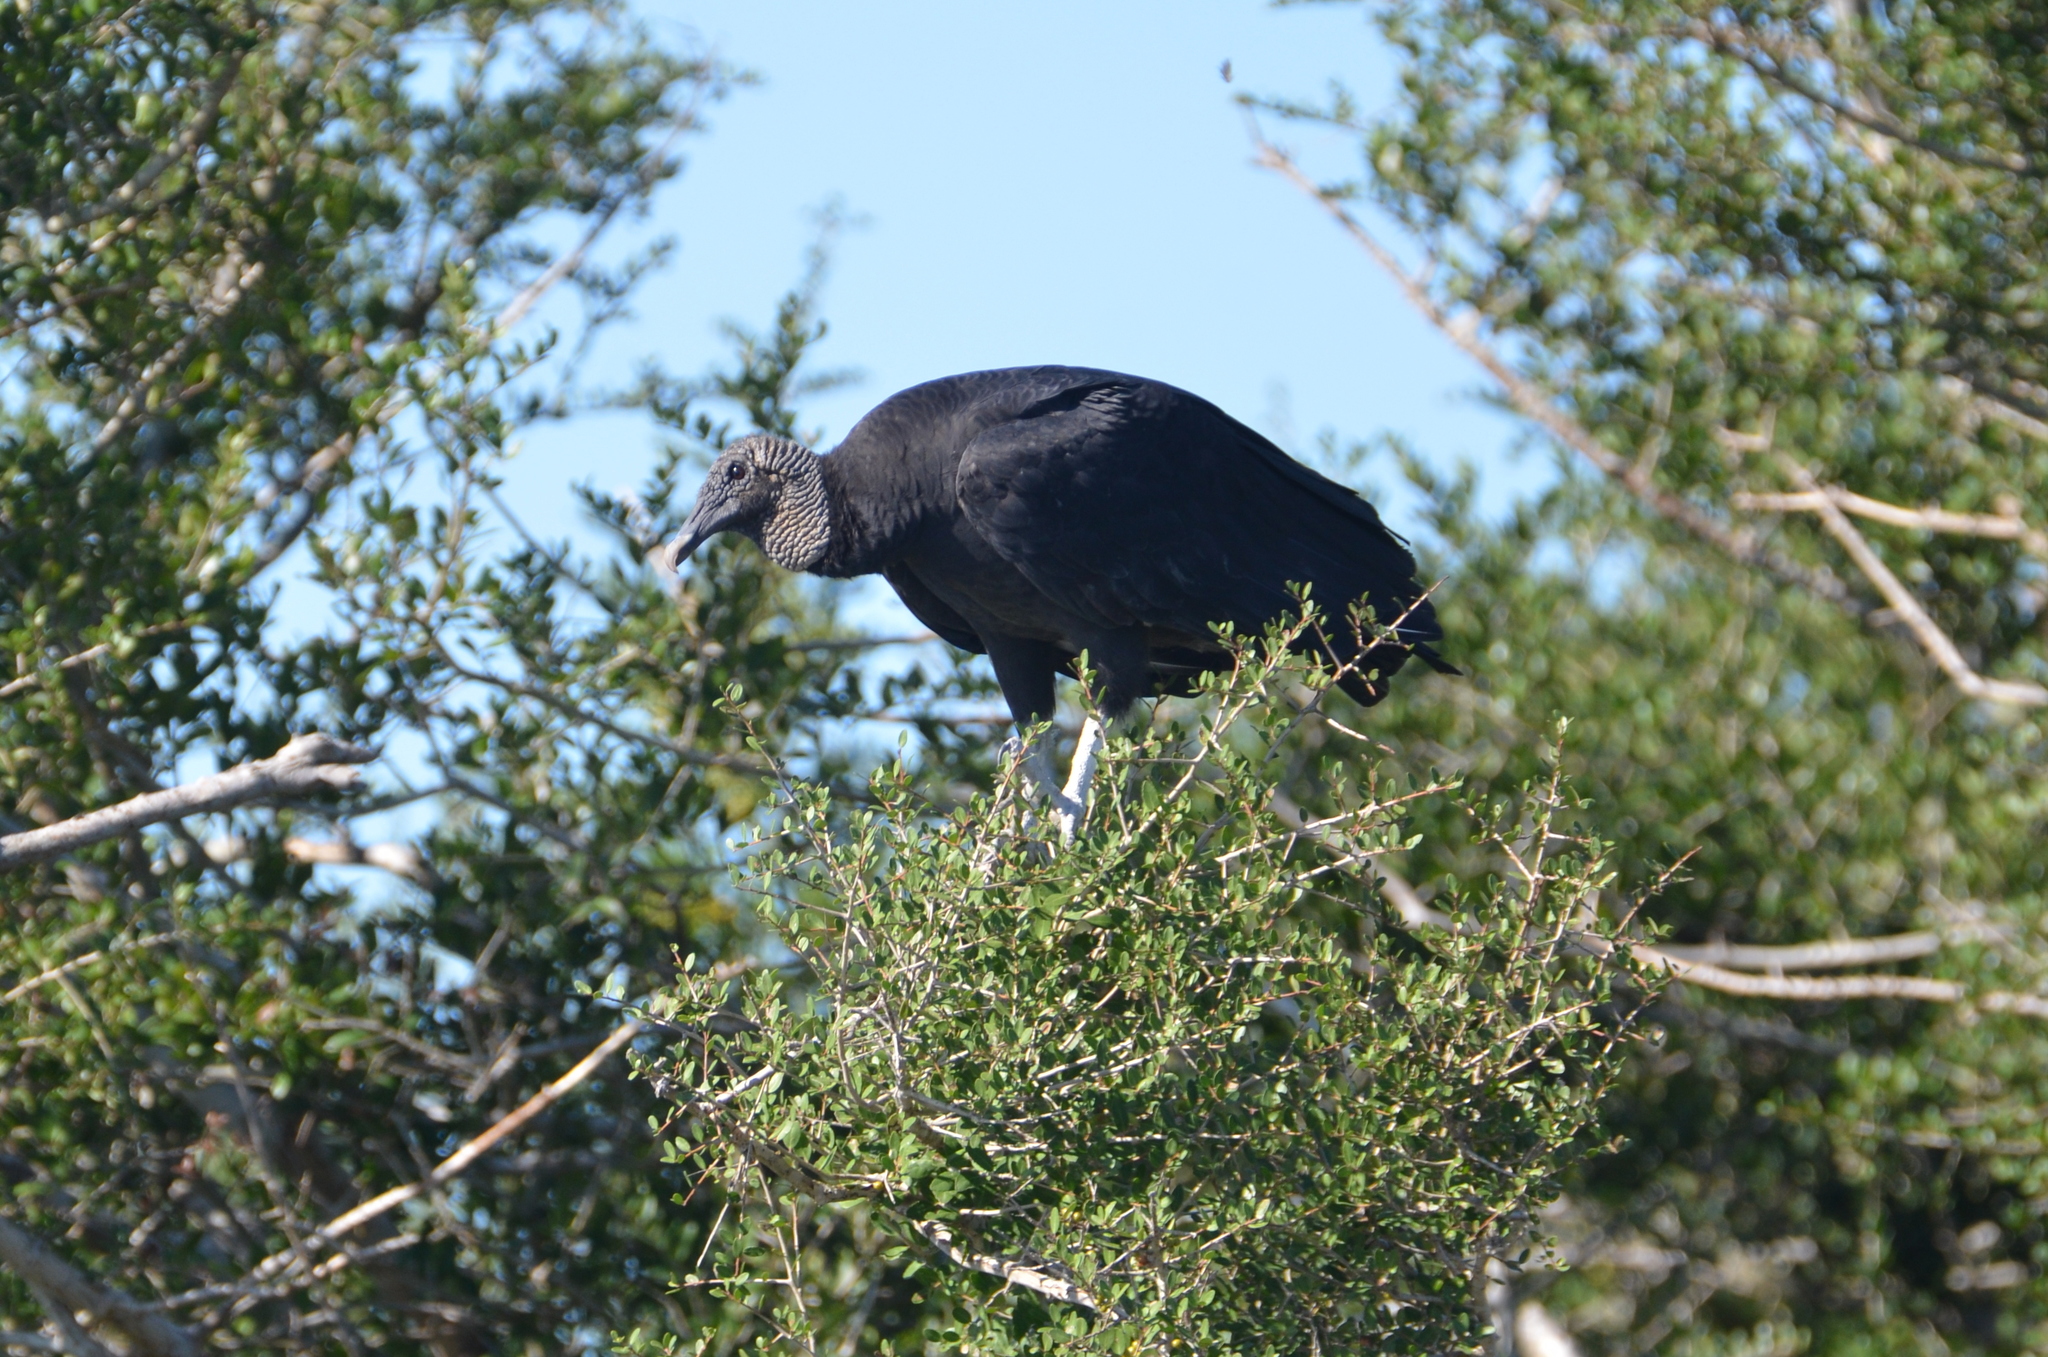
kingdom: Animalia
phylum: Chordata
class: Aves
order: Accipitriformes
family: Cathartidae
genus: Coragyps
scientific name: Coragyps atratus
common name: Black vulture
